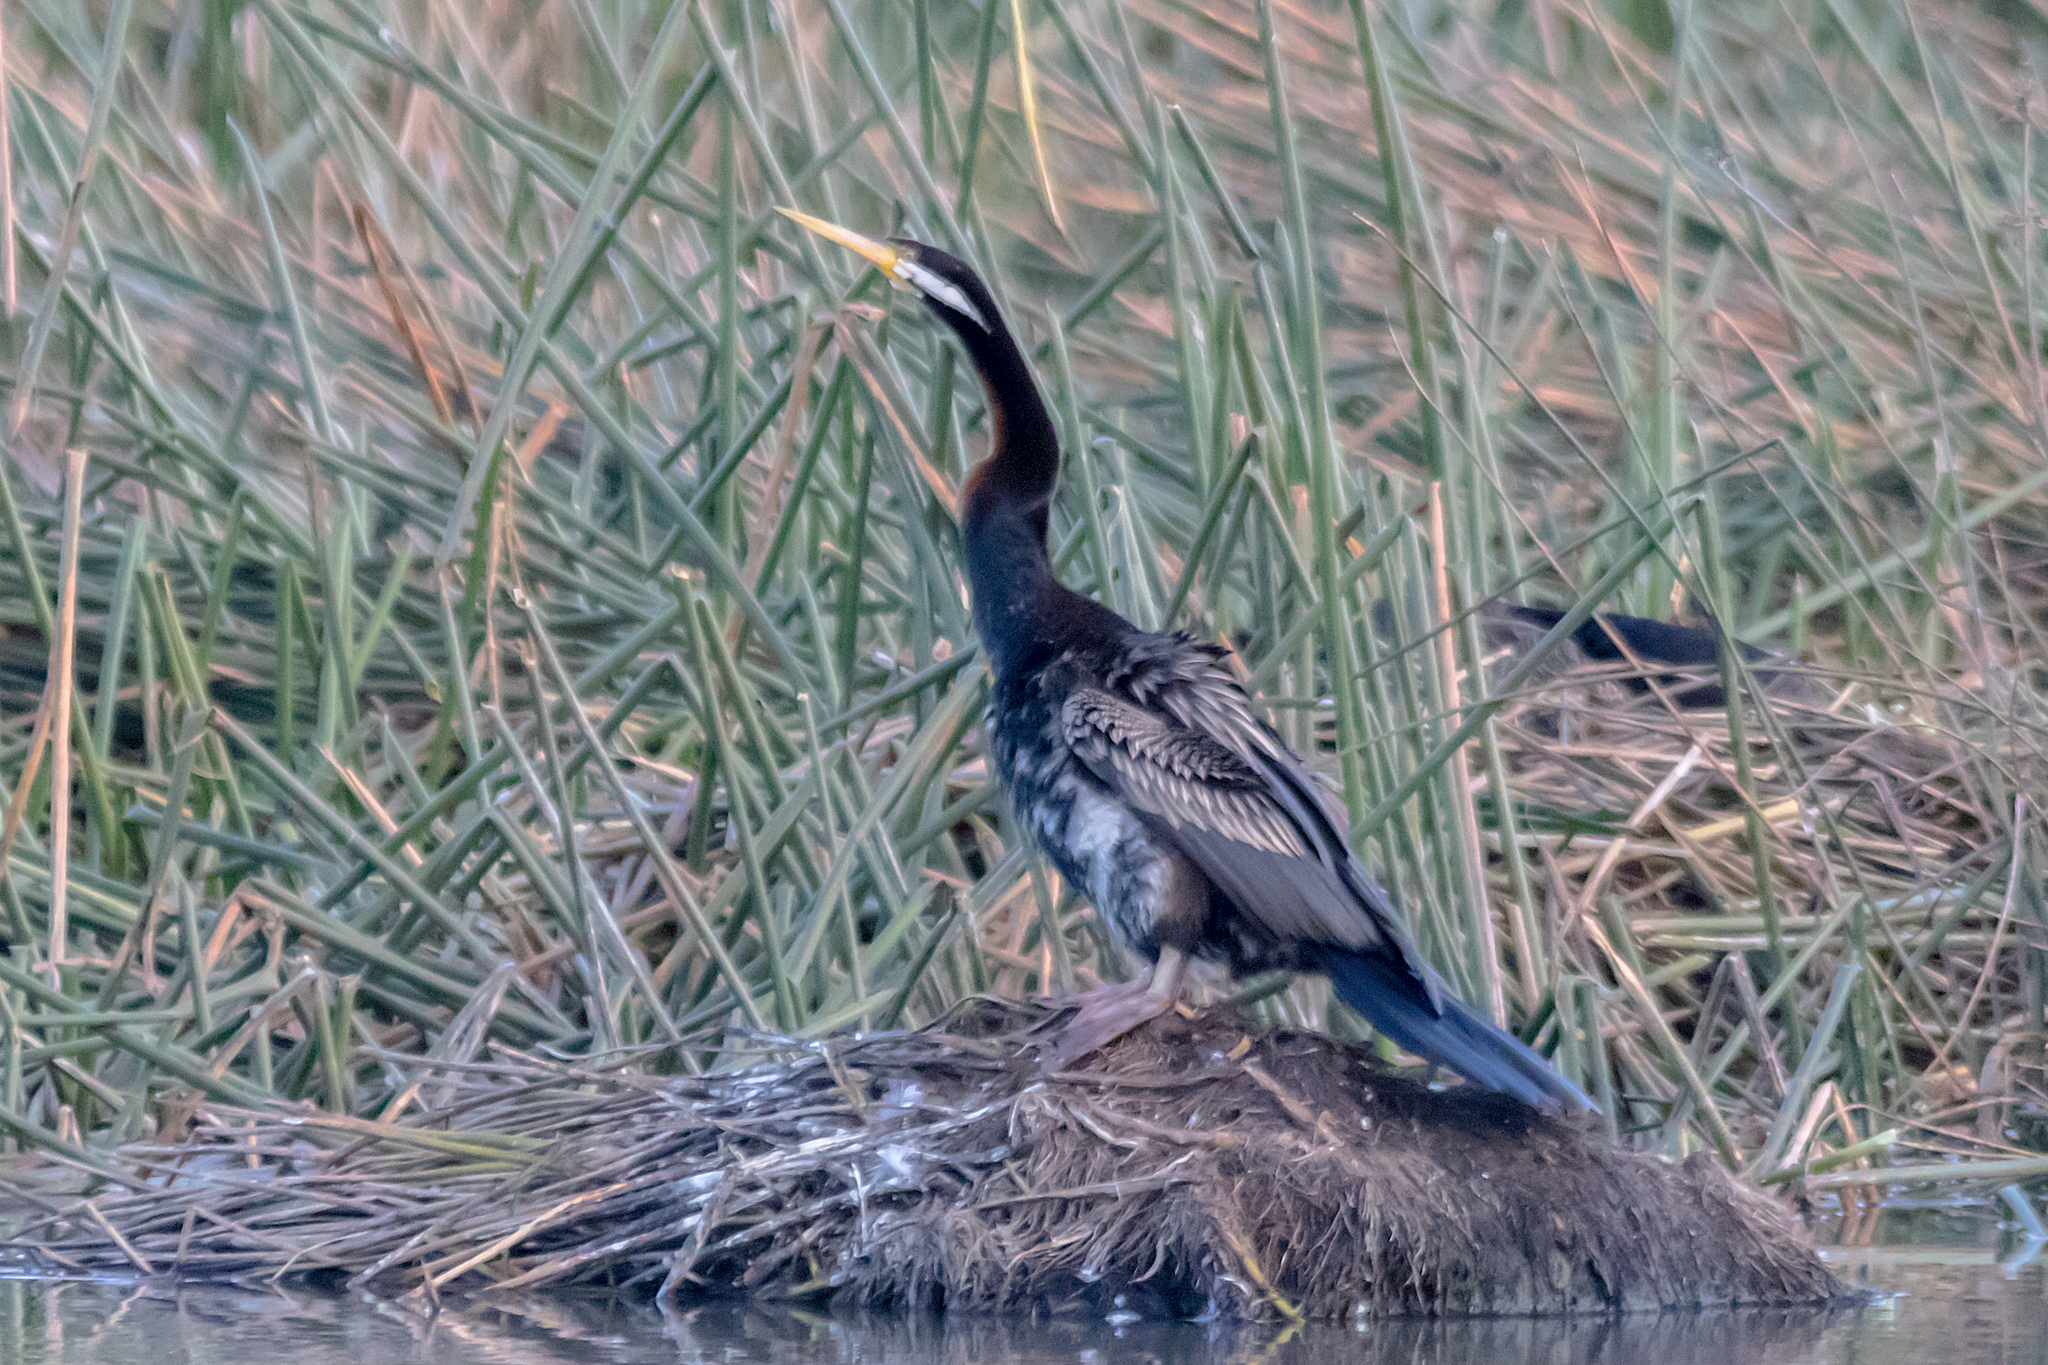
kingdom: Animalia
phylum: Chordata
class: Aves
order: Suliformes
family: Anhingidae
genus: Anhinga
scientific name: Anhinga novaehollandiae
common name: Australasian darter
